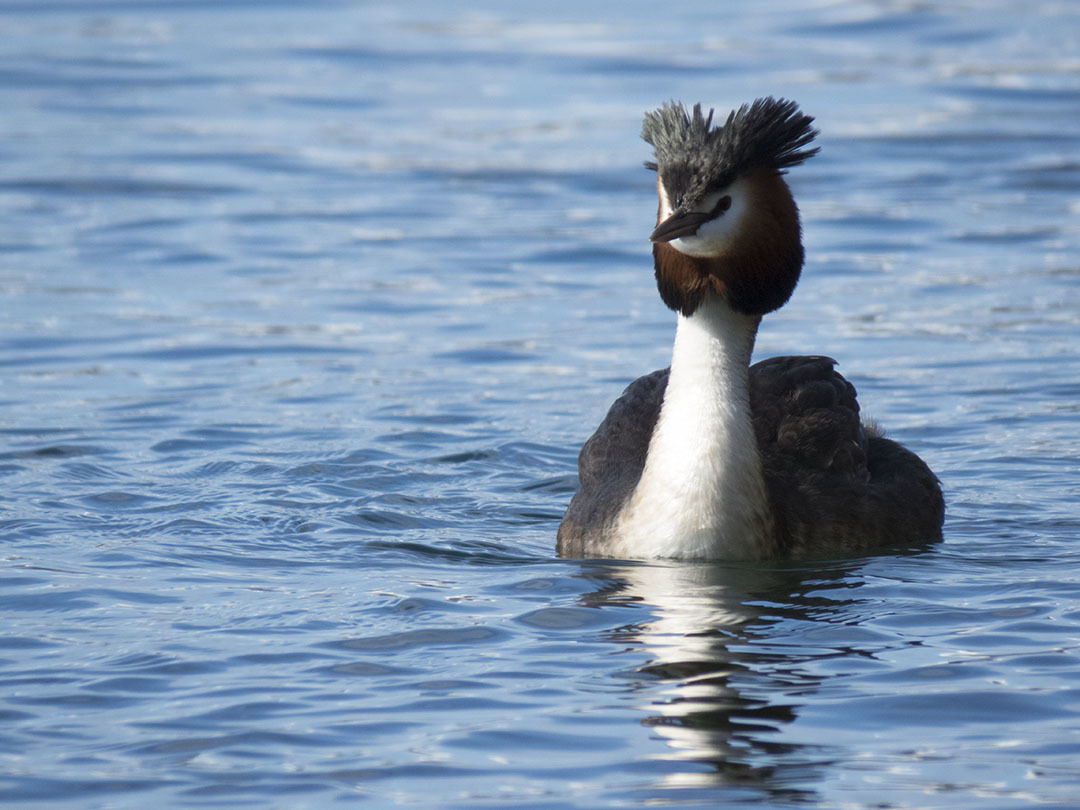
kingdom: Animalia
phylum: Chordata
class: Aves
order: Podicipediformes
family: Podicipedidae
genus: Podiceps
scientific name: Podiceps cristatus
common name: Great crested grebe
